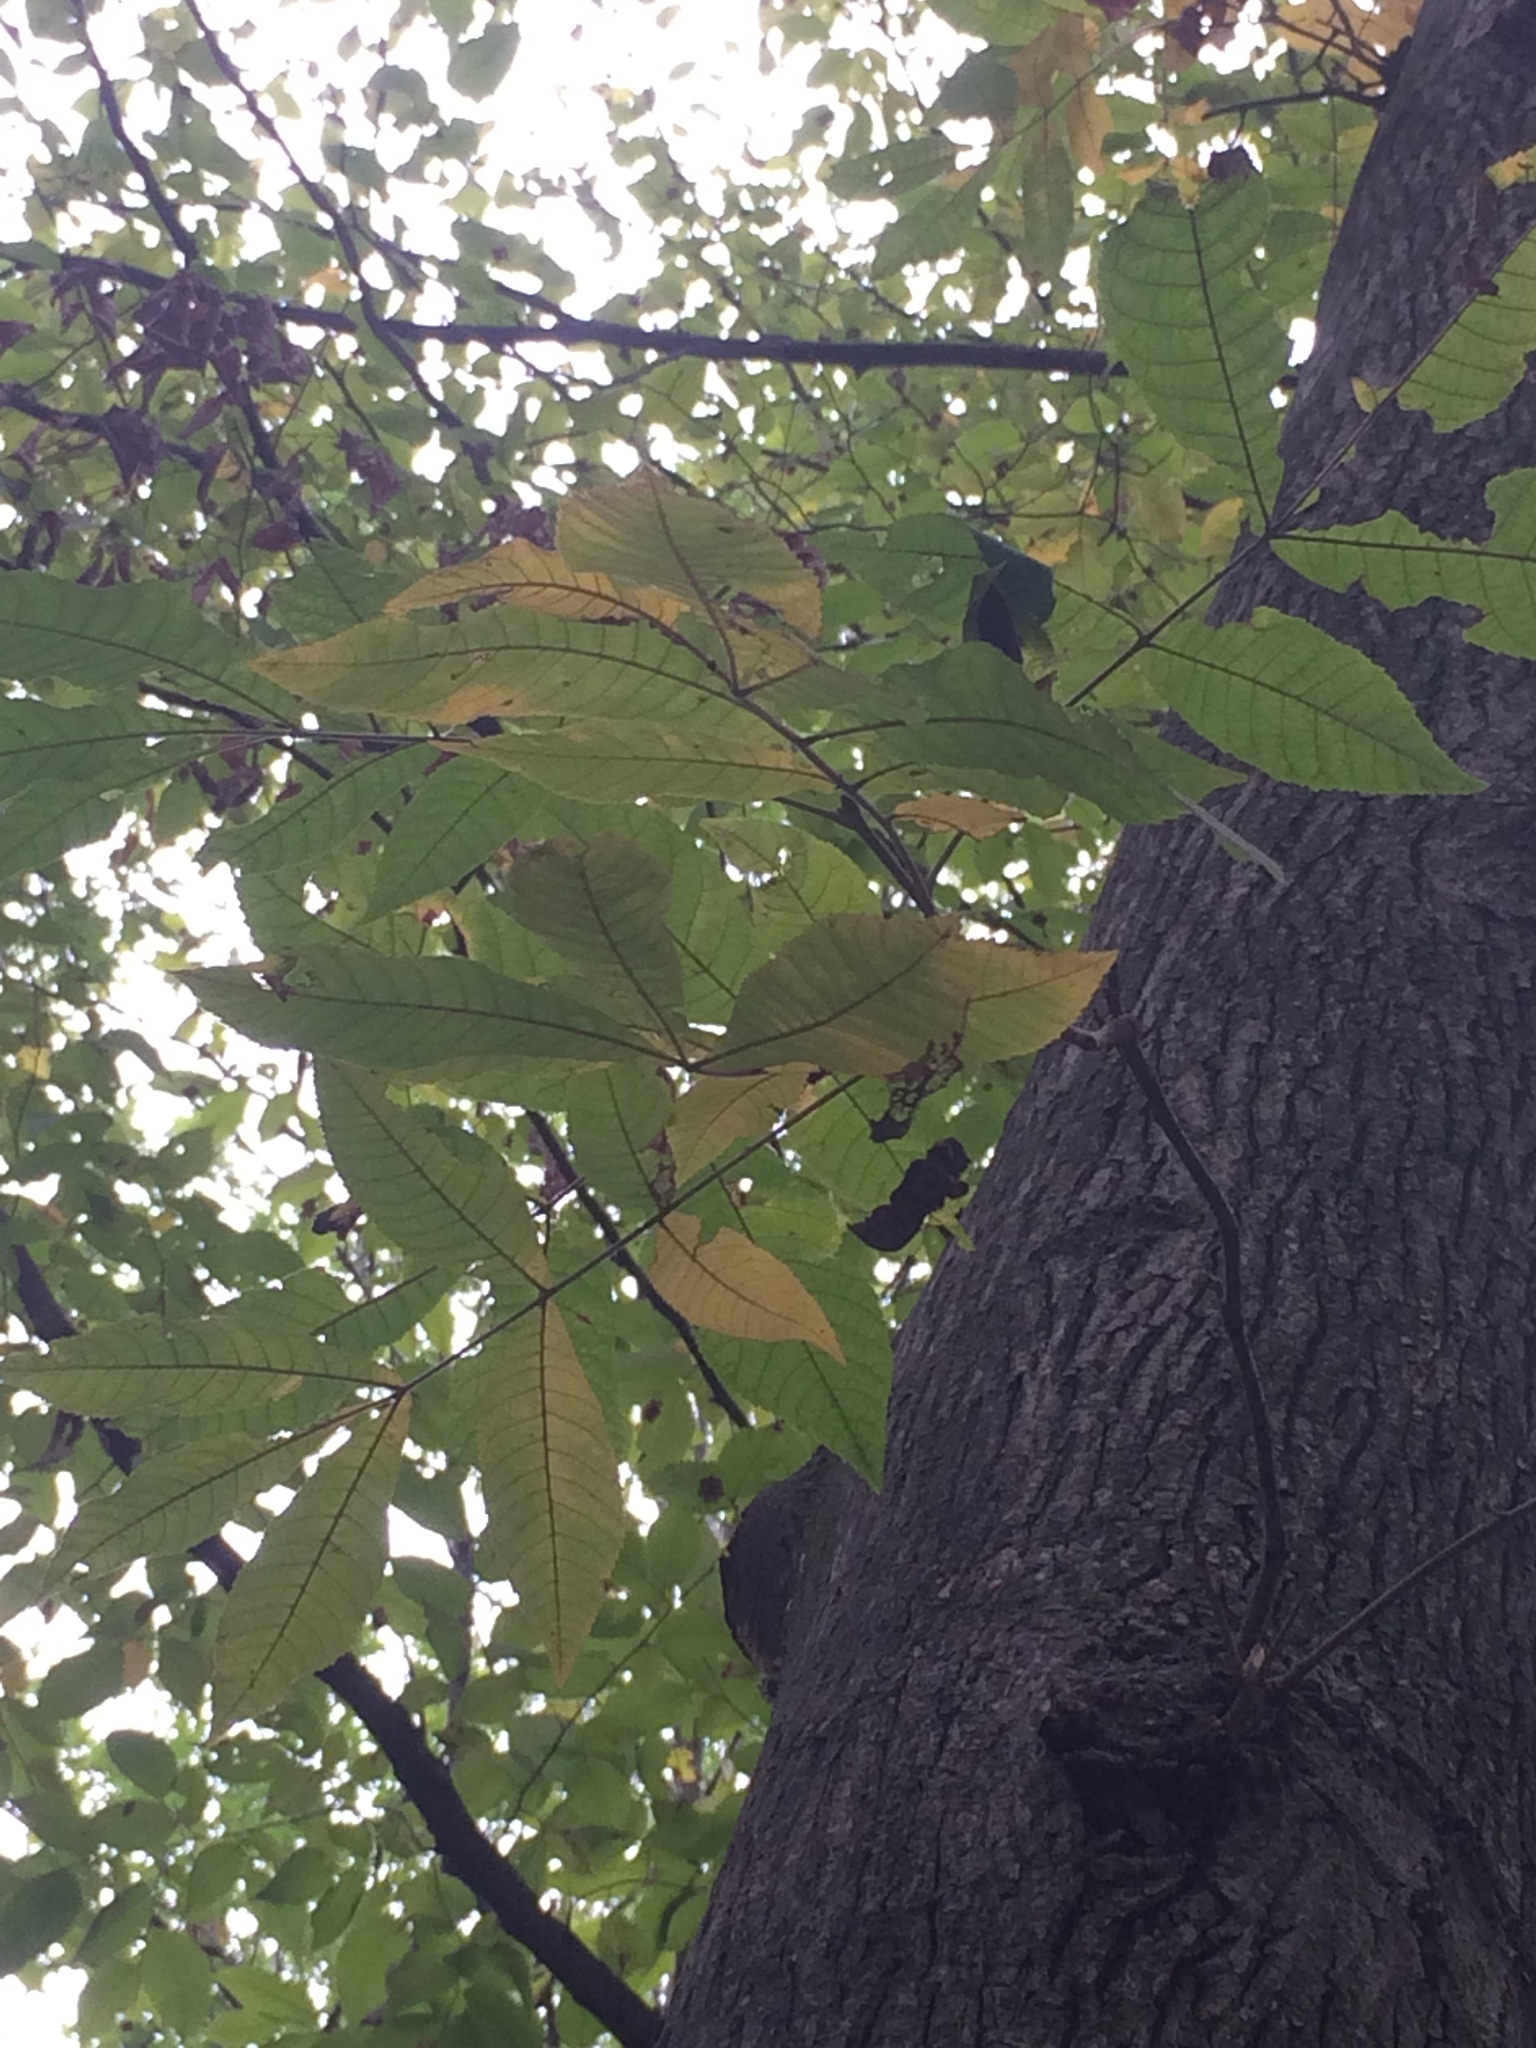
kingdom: Plantae
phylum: Tracheophyta
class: Magnoliopsida
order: Fagales
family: Juglandaceae
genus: Carya
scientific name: Carya cordiformis
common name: Bitternut hickory
